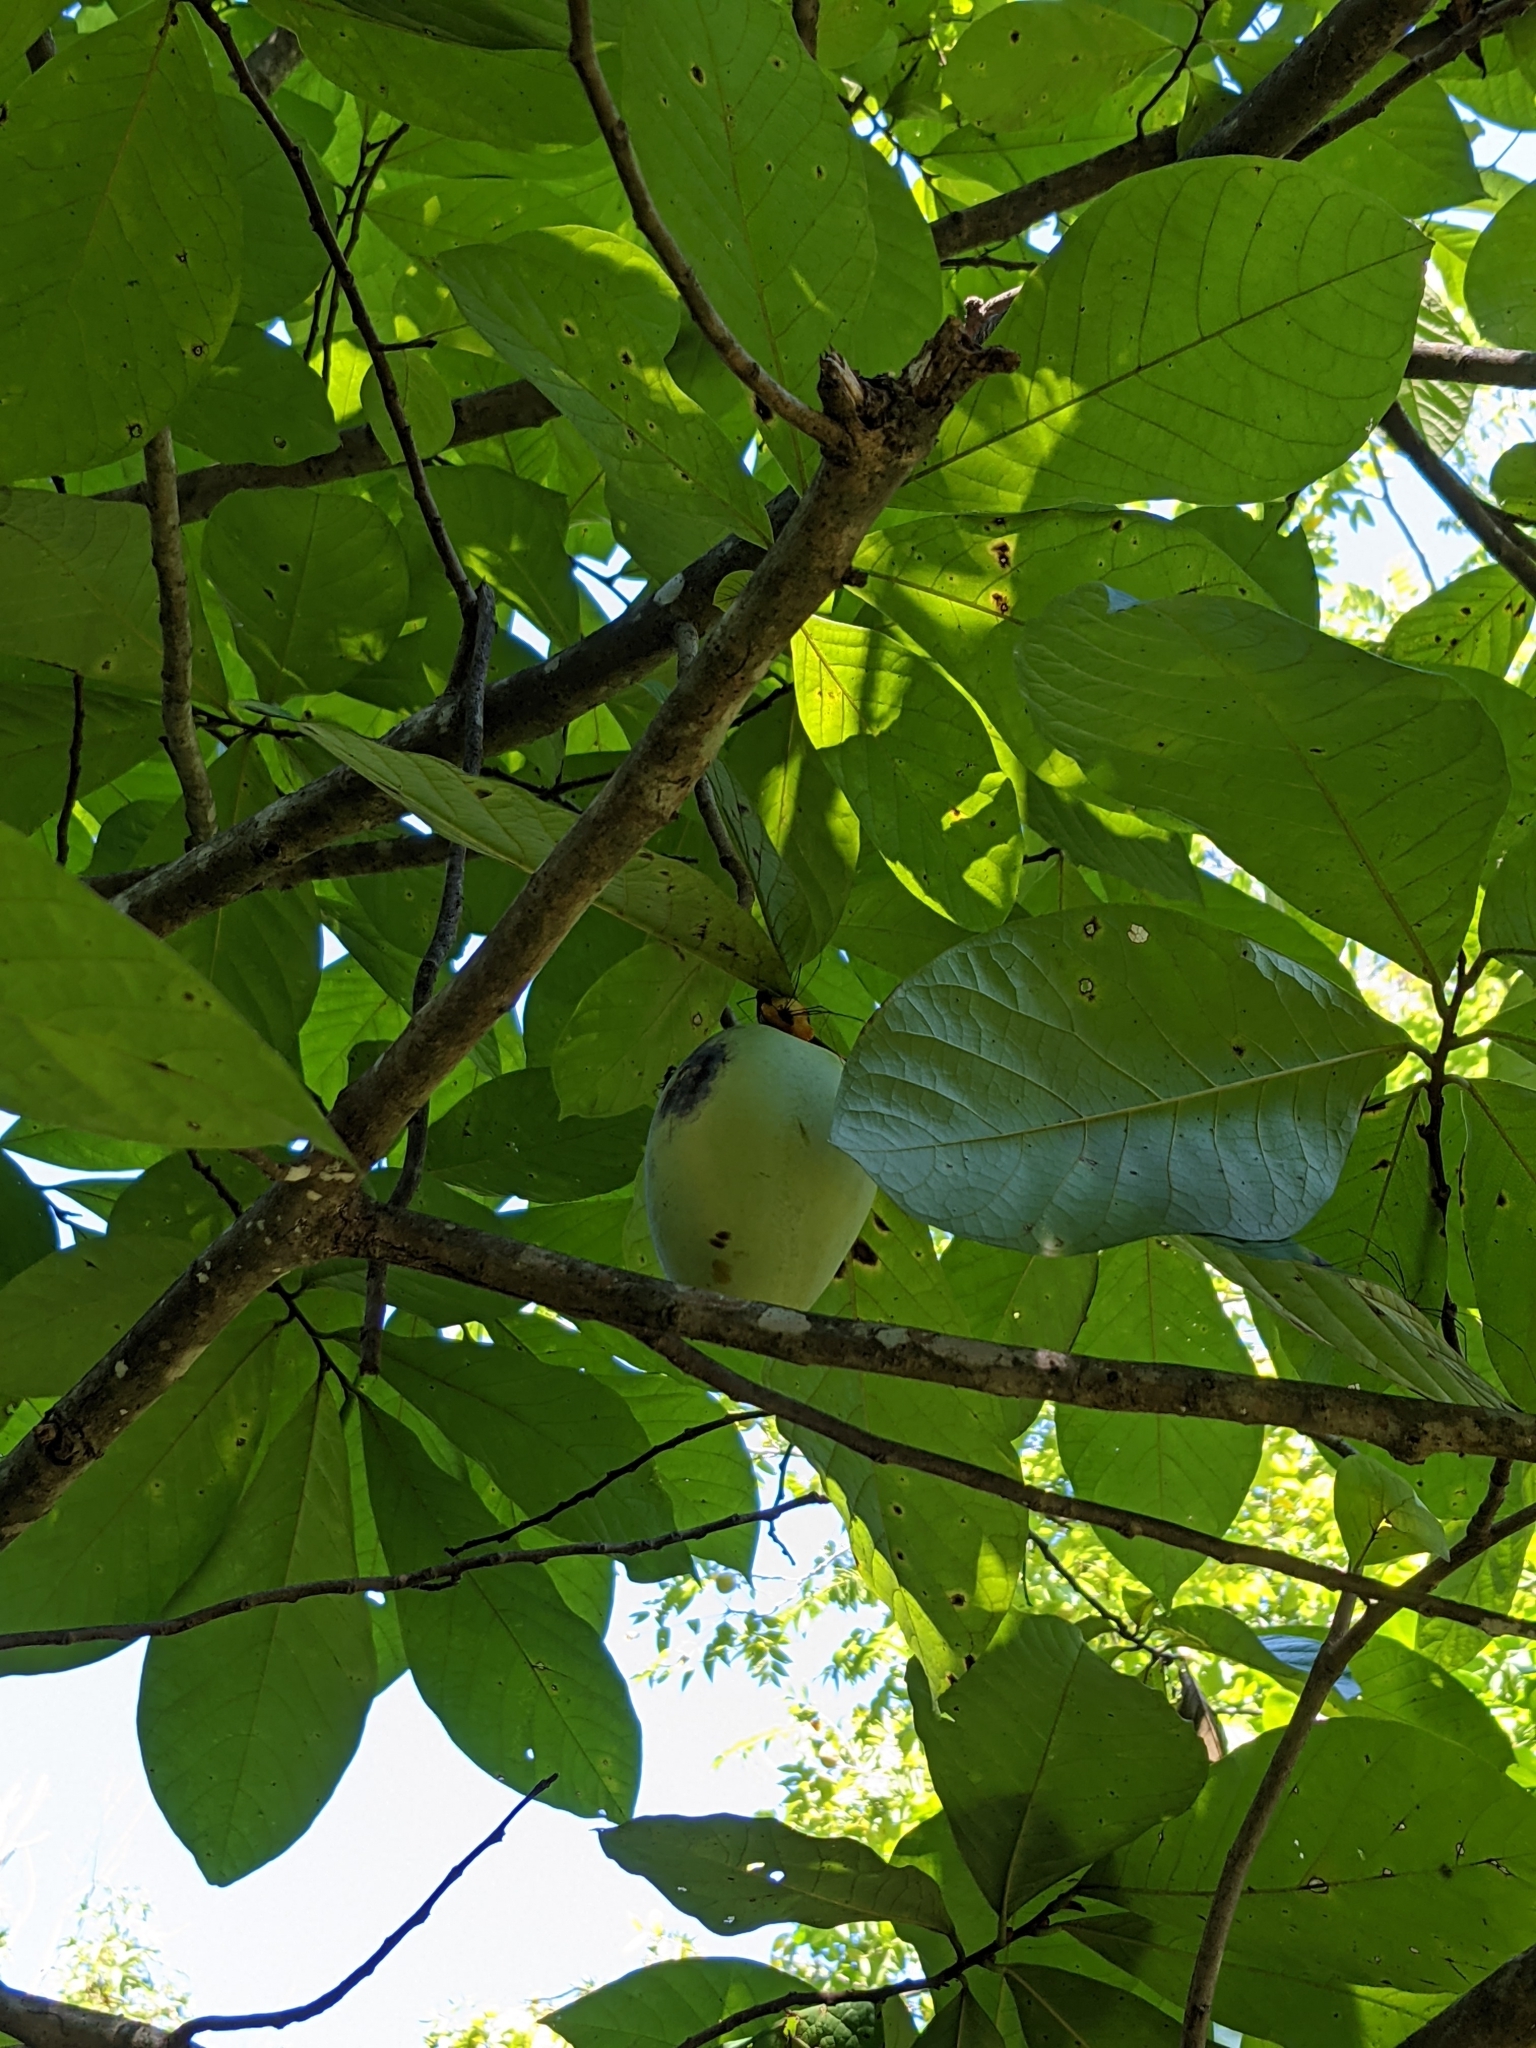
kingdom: Plantae
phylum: Tracheophyta
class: Magnoliopsida
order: Magnoliales
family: Annonaceae
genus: Asimina
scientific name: Asimina triloba
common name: Dog-banana
